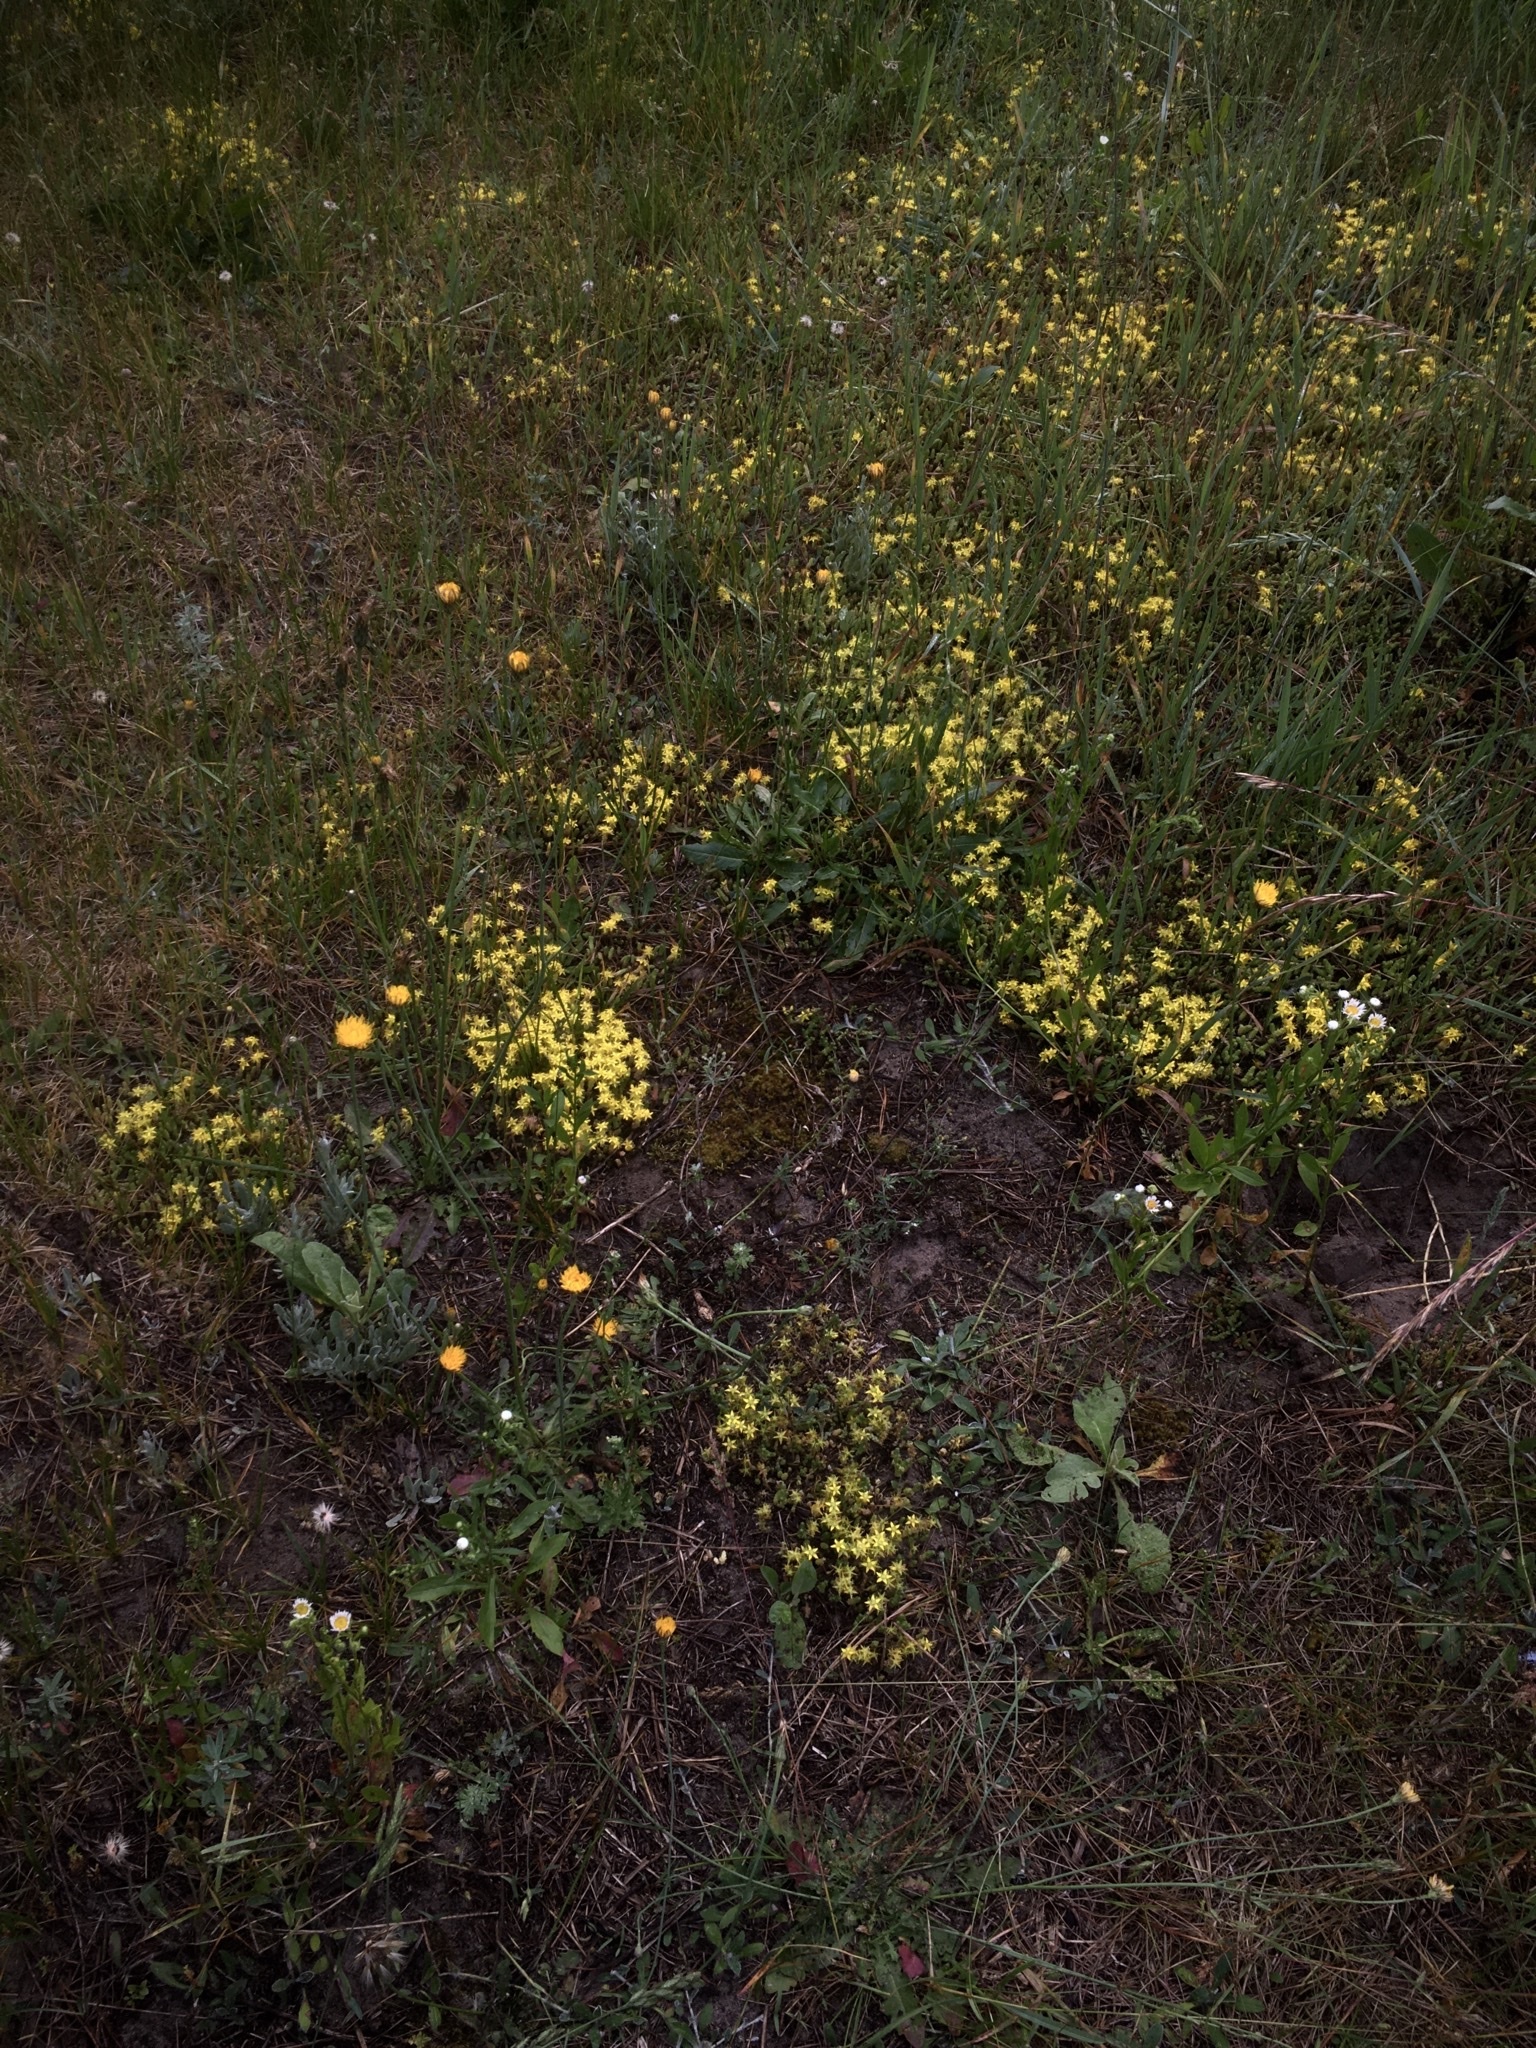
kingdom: Plantae
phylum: Tracheophyta
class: Magnoliopsida
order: Saxifragales
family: Crassulaceae
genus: Sedum
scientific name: Sedum acre
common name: Biting stonecrop
